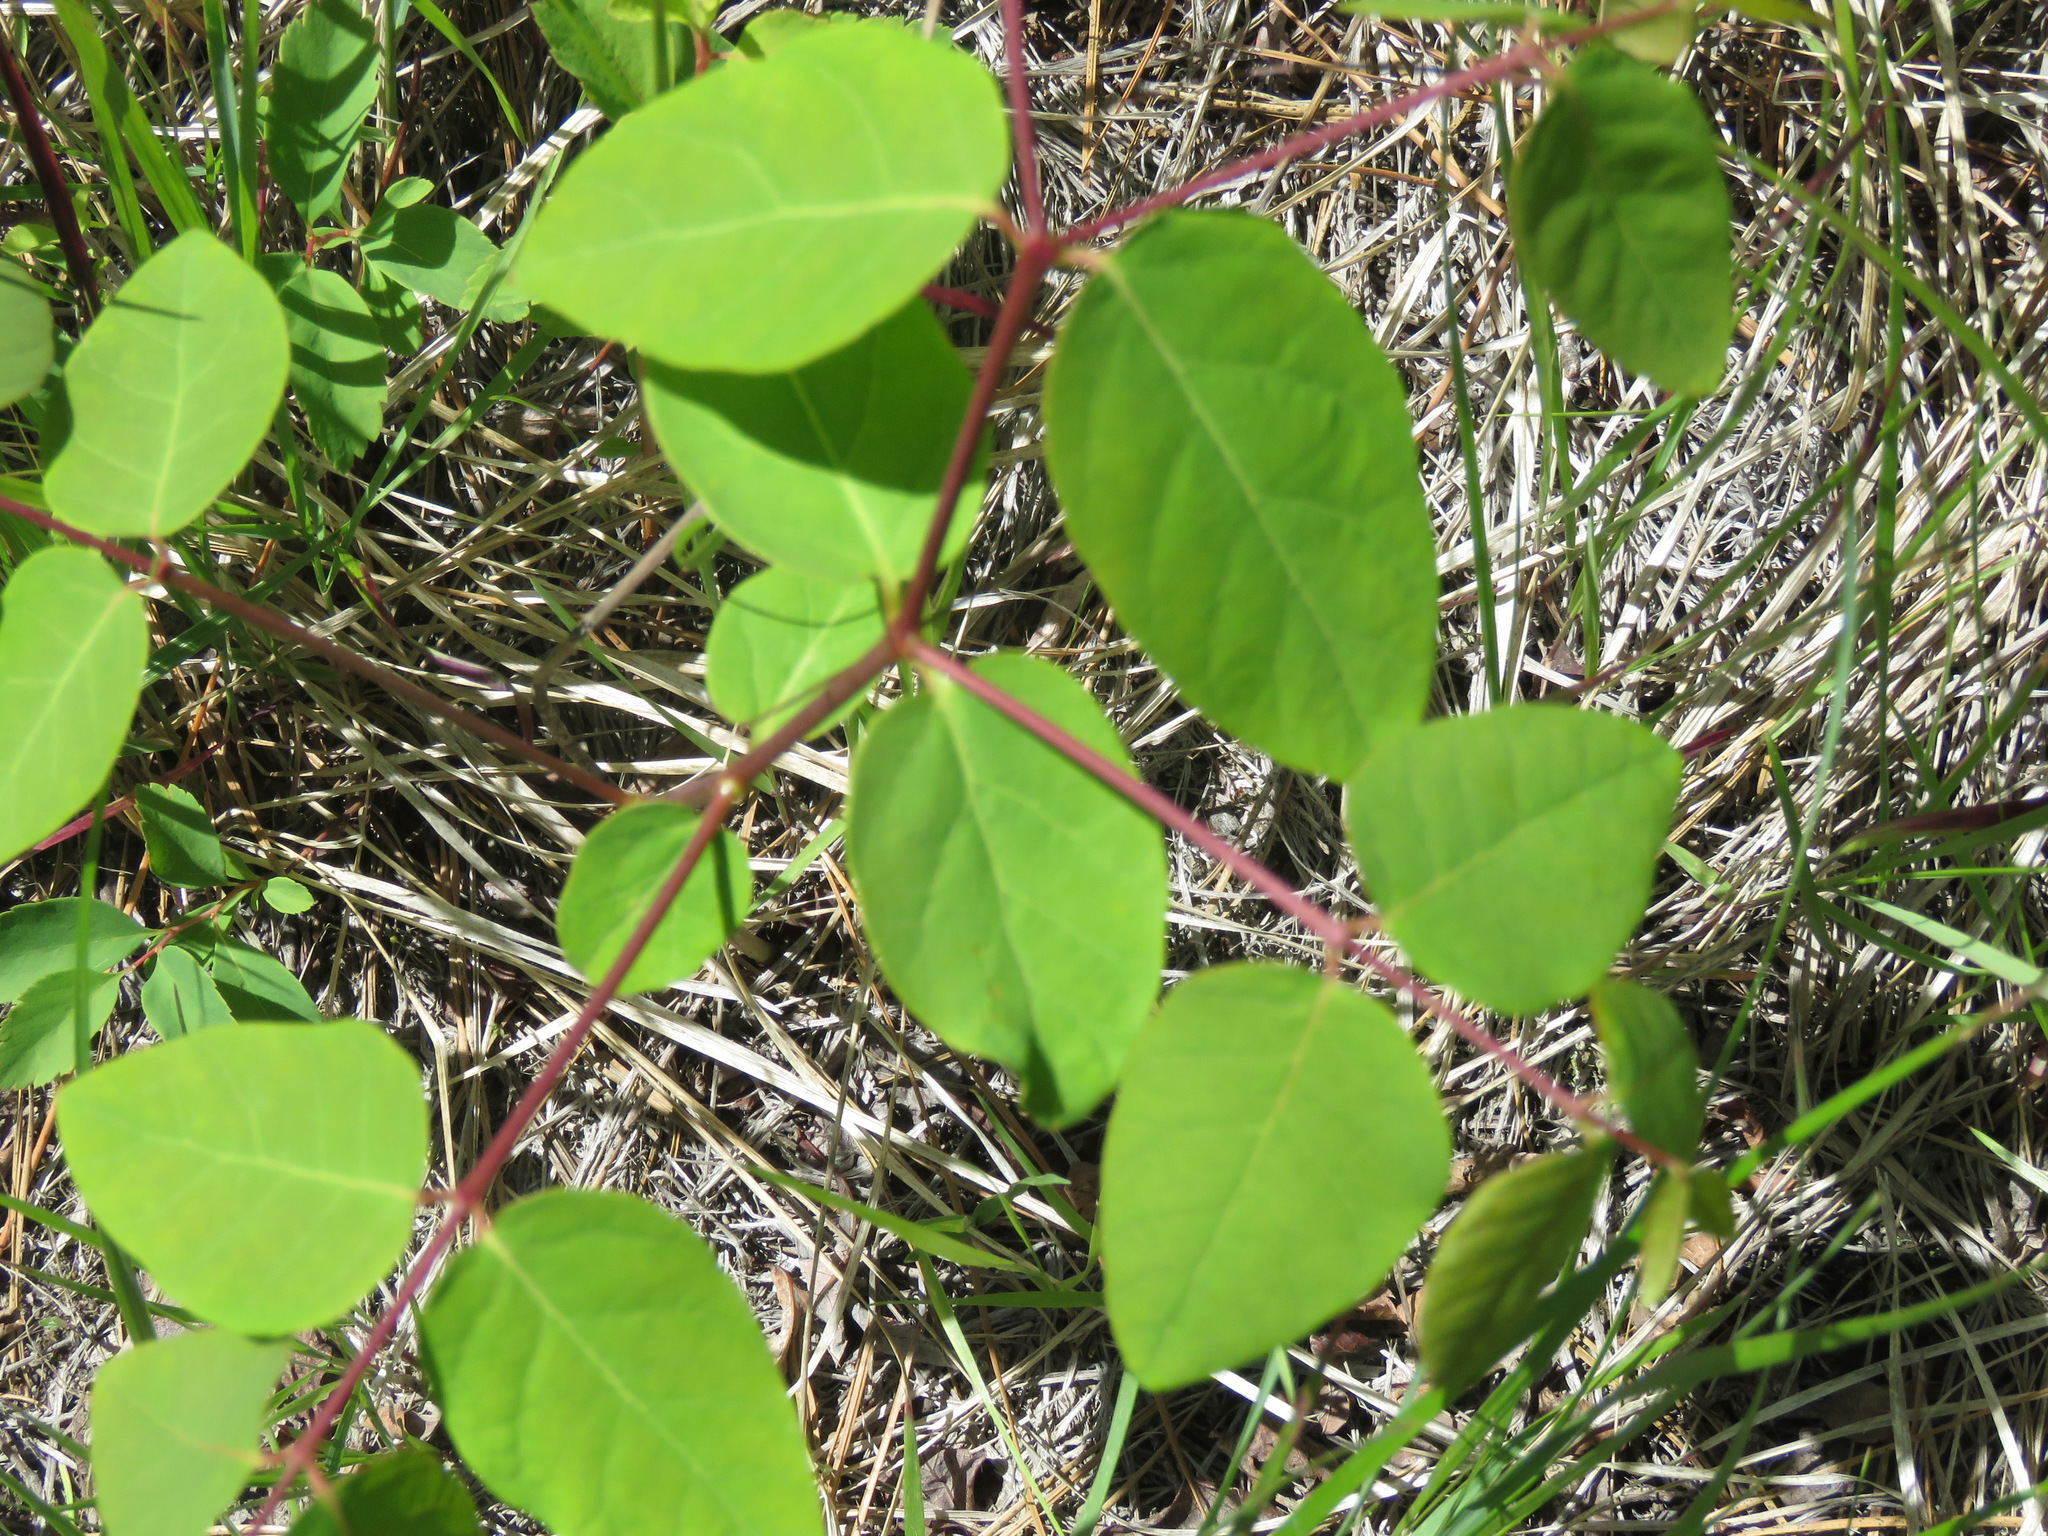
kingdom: Plantae
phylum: Tracheophyta
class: Magnoliopsida
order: Gentianales
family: Apocynaceae
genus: Apocynum
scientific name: Apocynum androsaemifolium
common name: Spreading dogbane
